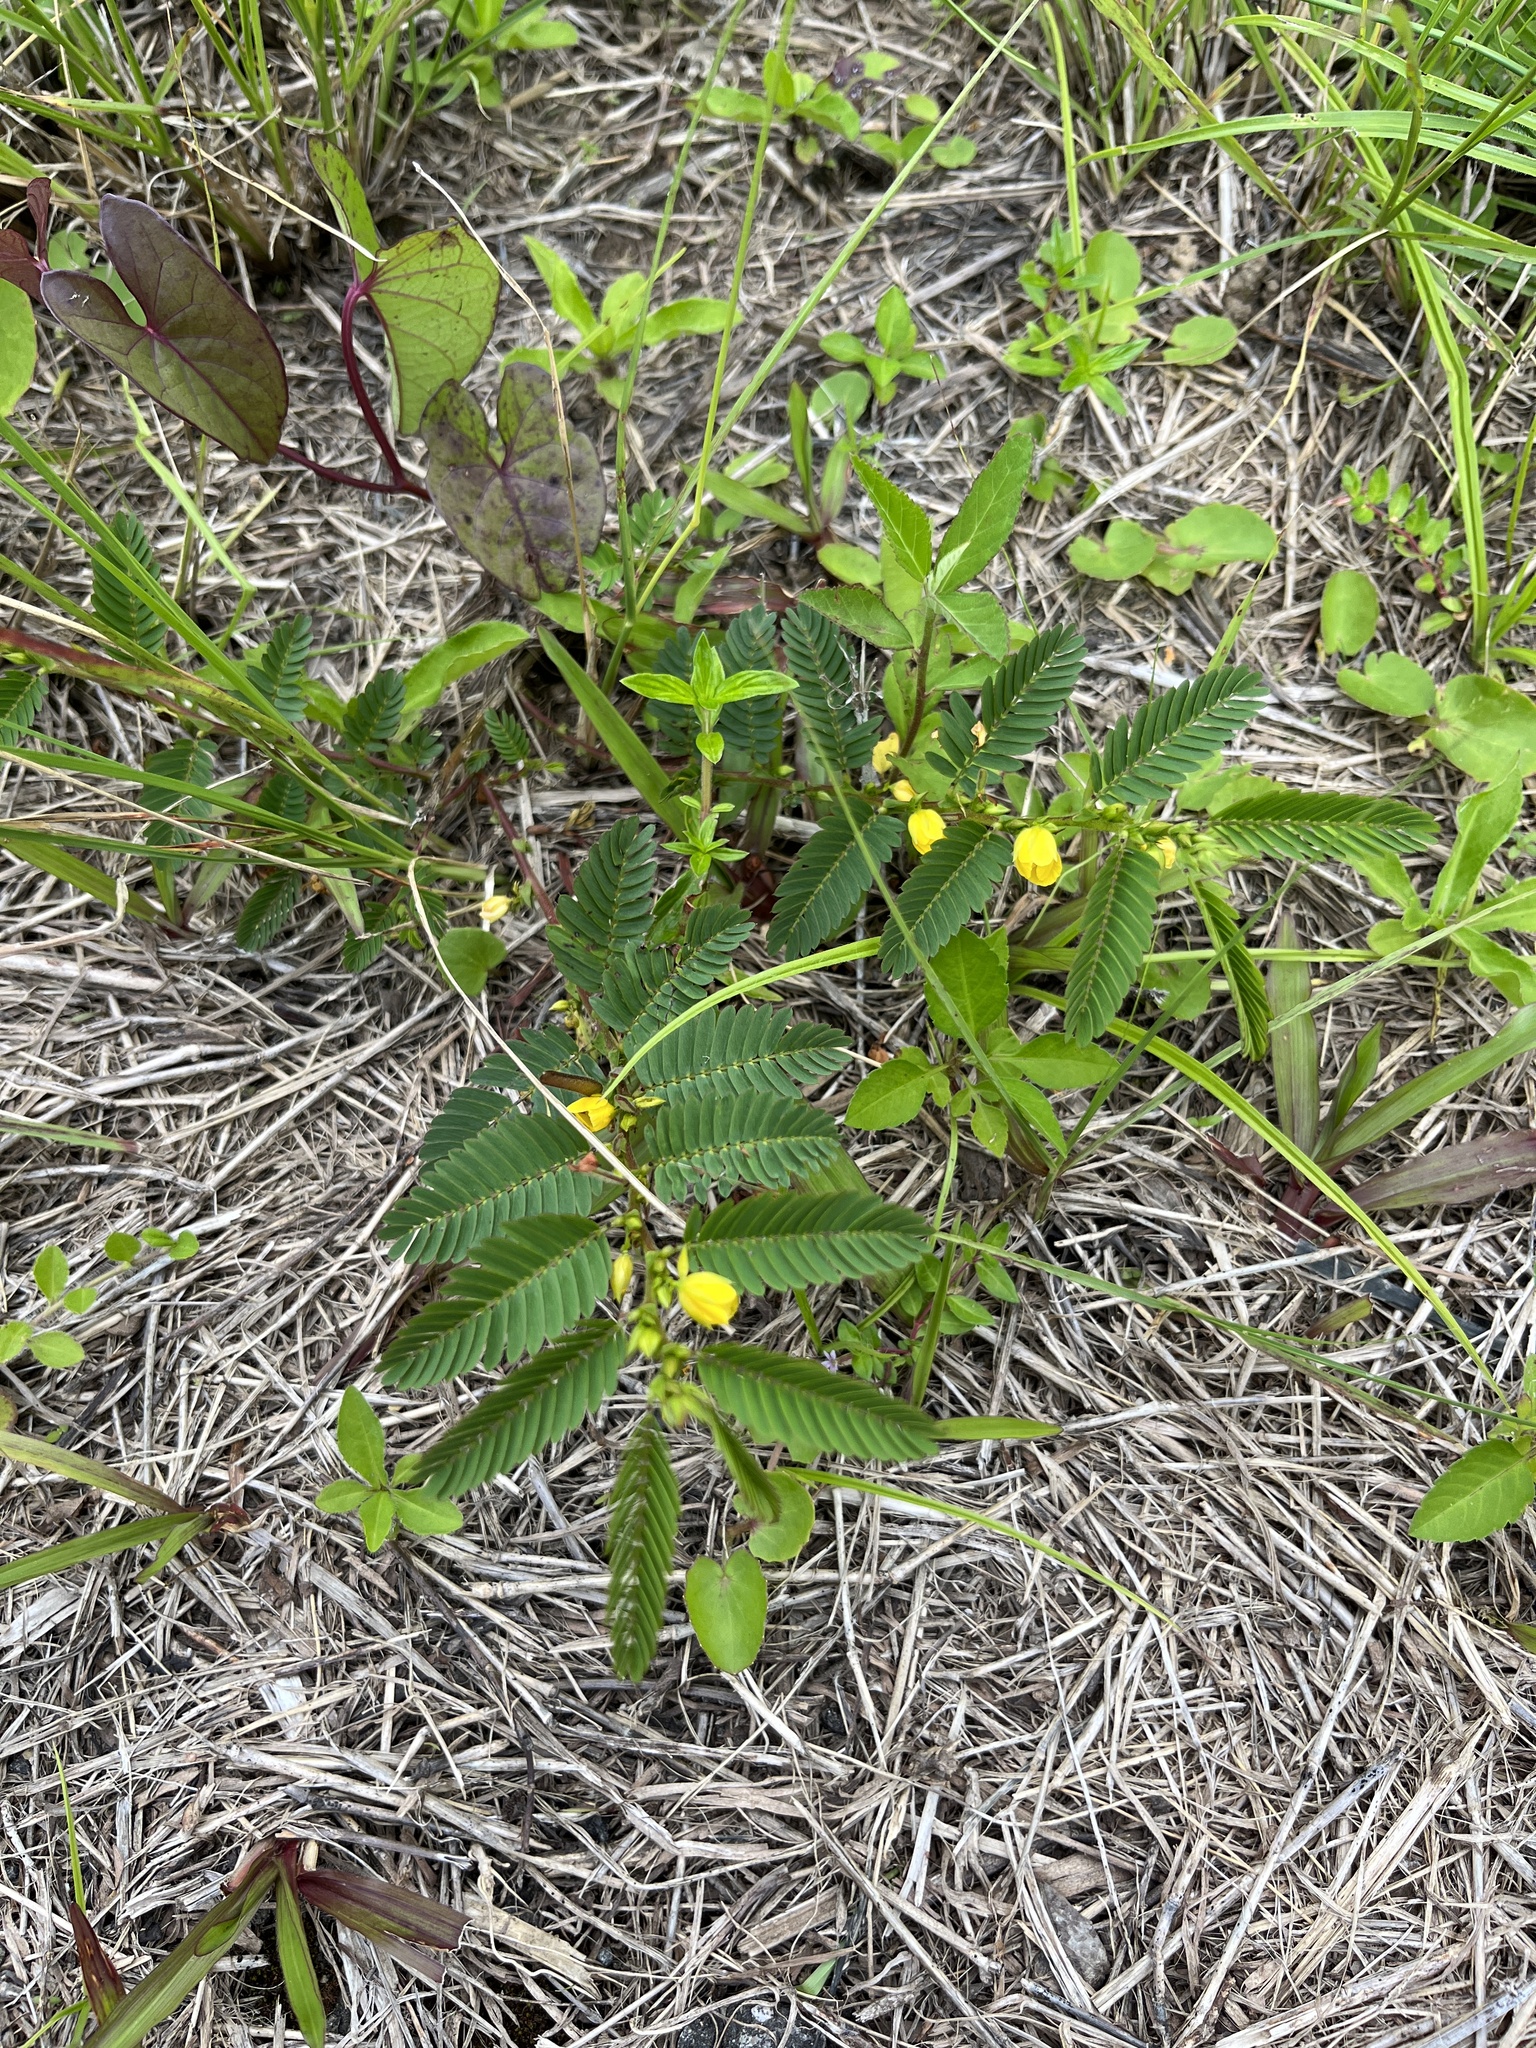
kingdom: Plantae
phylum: Tracheophyta
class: Magnoliopsida
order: Fabales
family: Fabaceae
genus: Chamaecrista
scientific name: Chamaecrista nictitans
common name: Sensitive cassia
